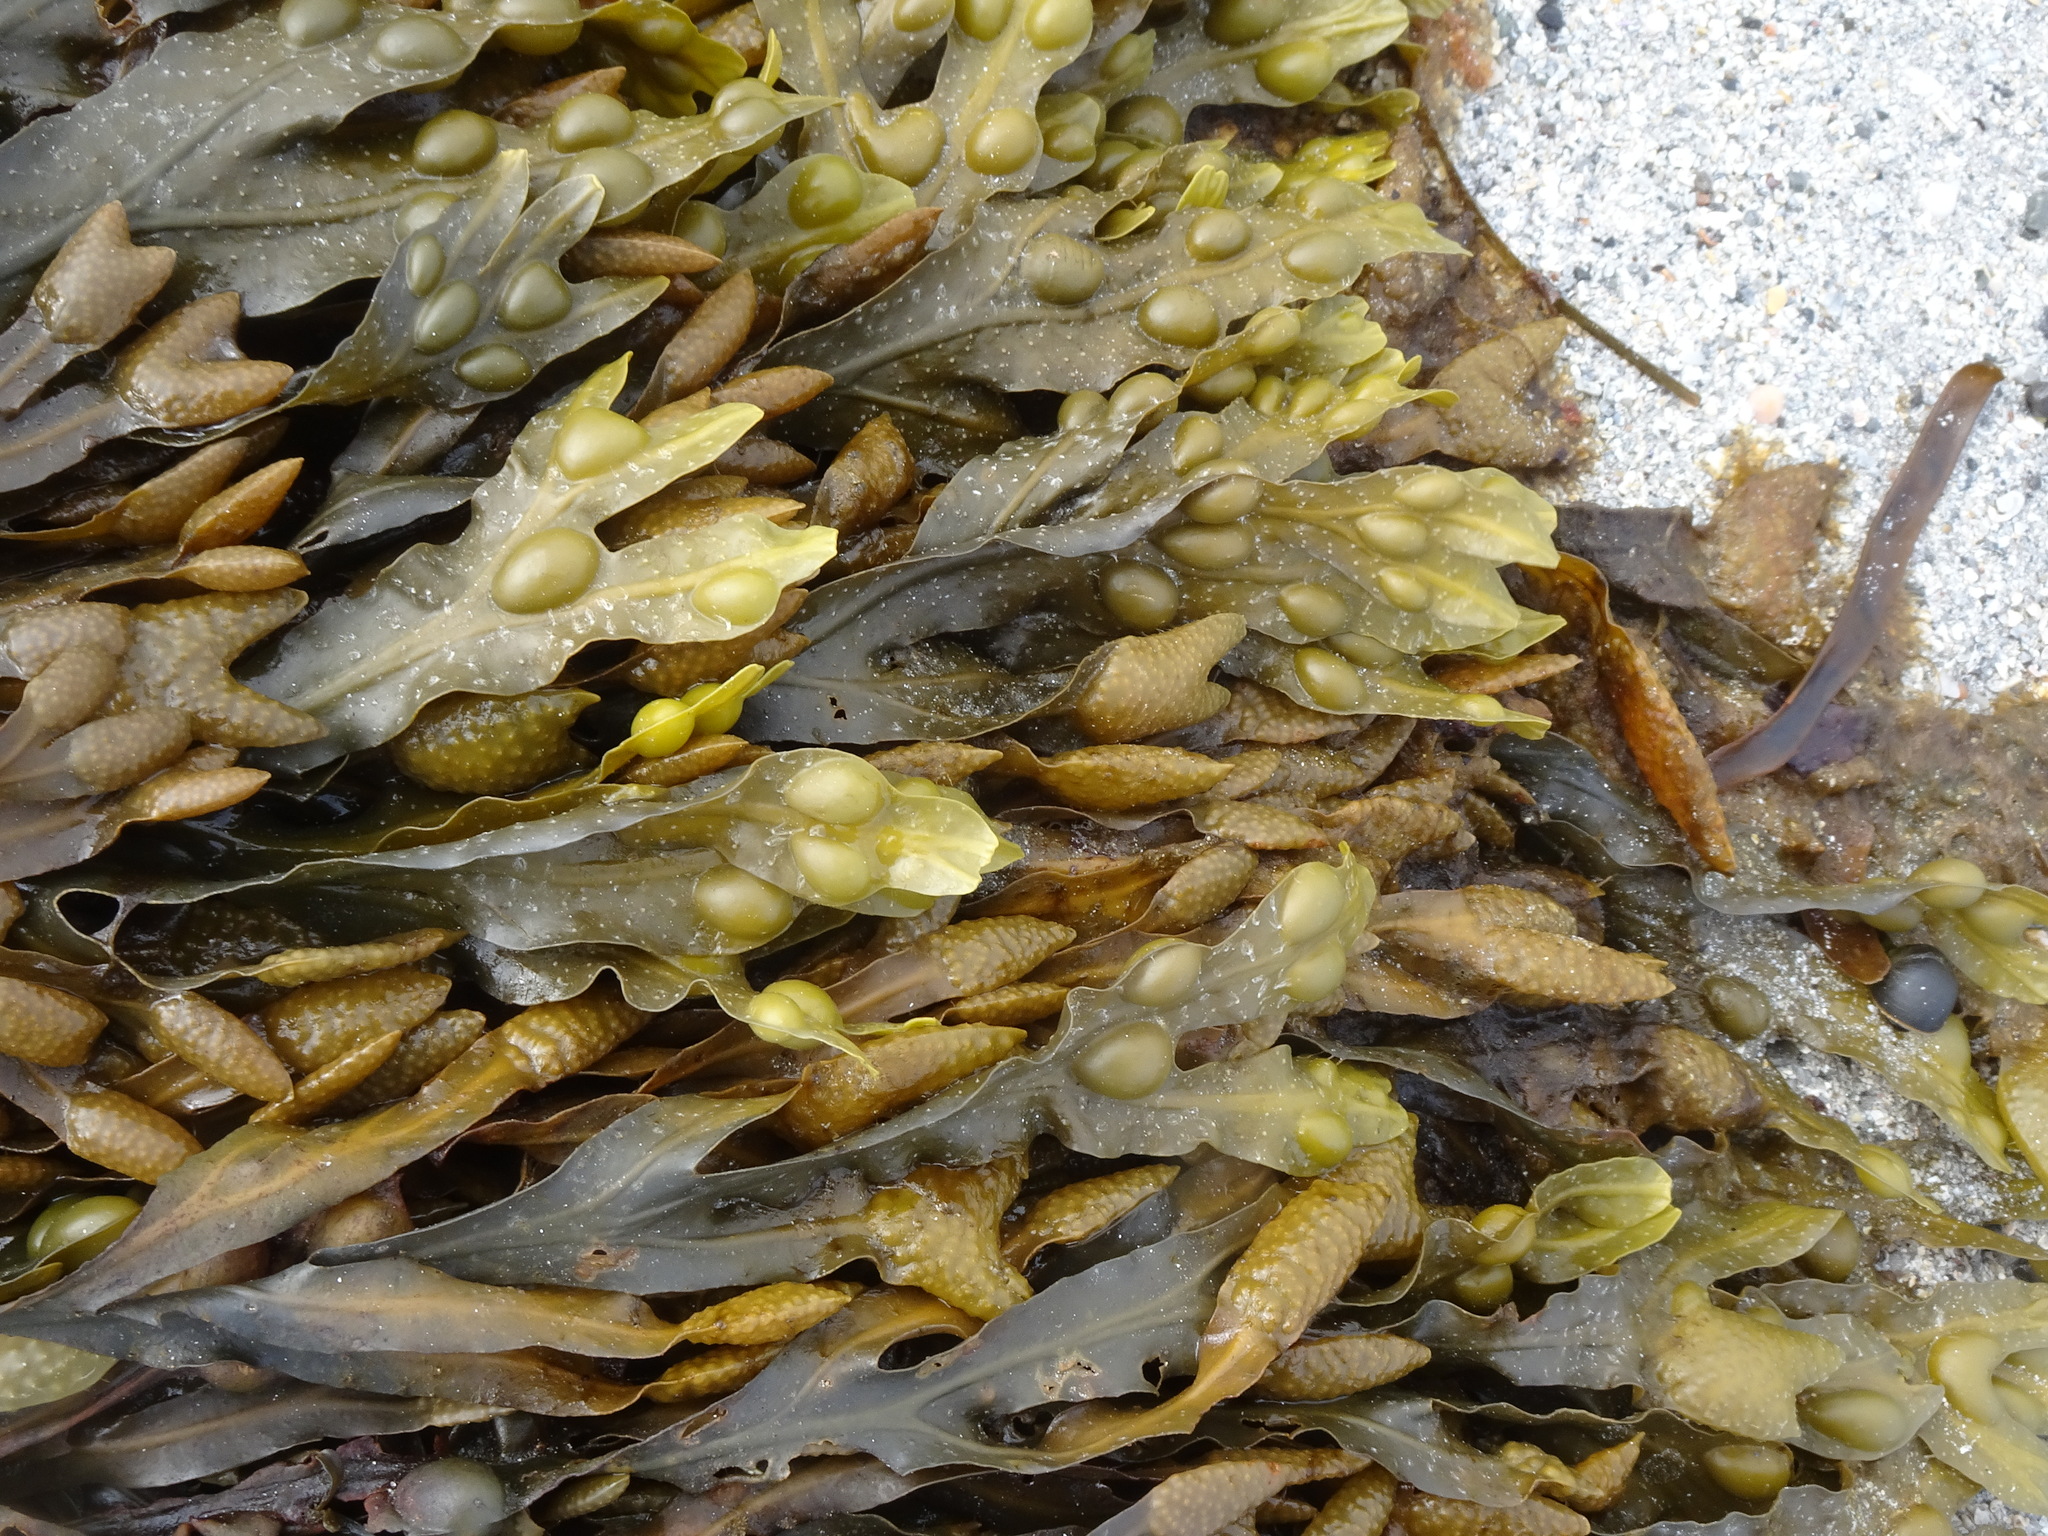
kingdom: Chromista
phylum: Ochrophyta
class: Phaeophyceae
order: Fucales
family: Fucaceae
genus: Fucus
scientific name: Fucus vesiculosus
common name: Bladder wrack
